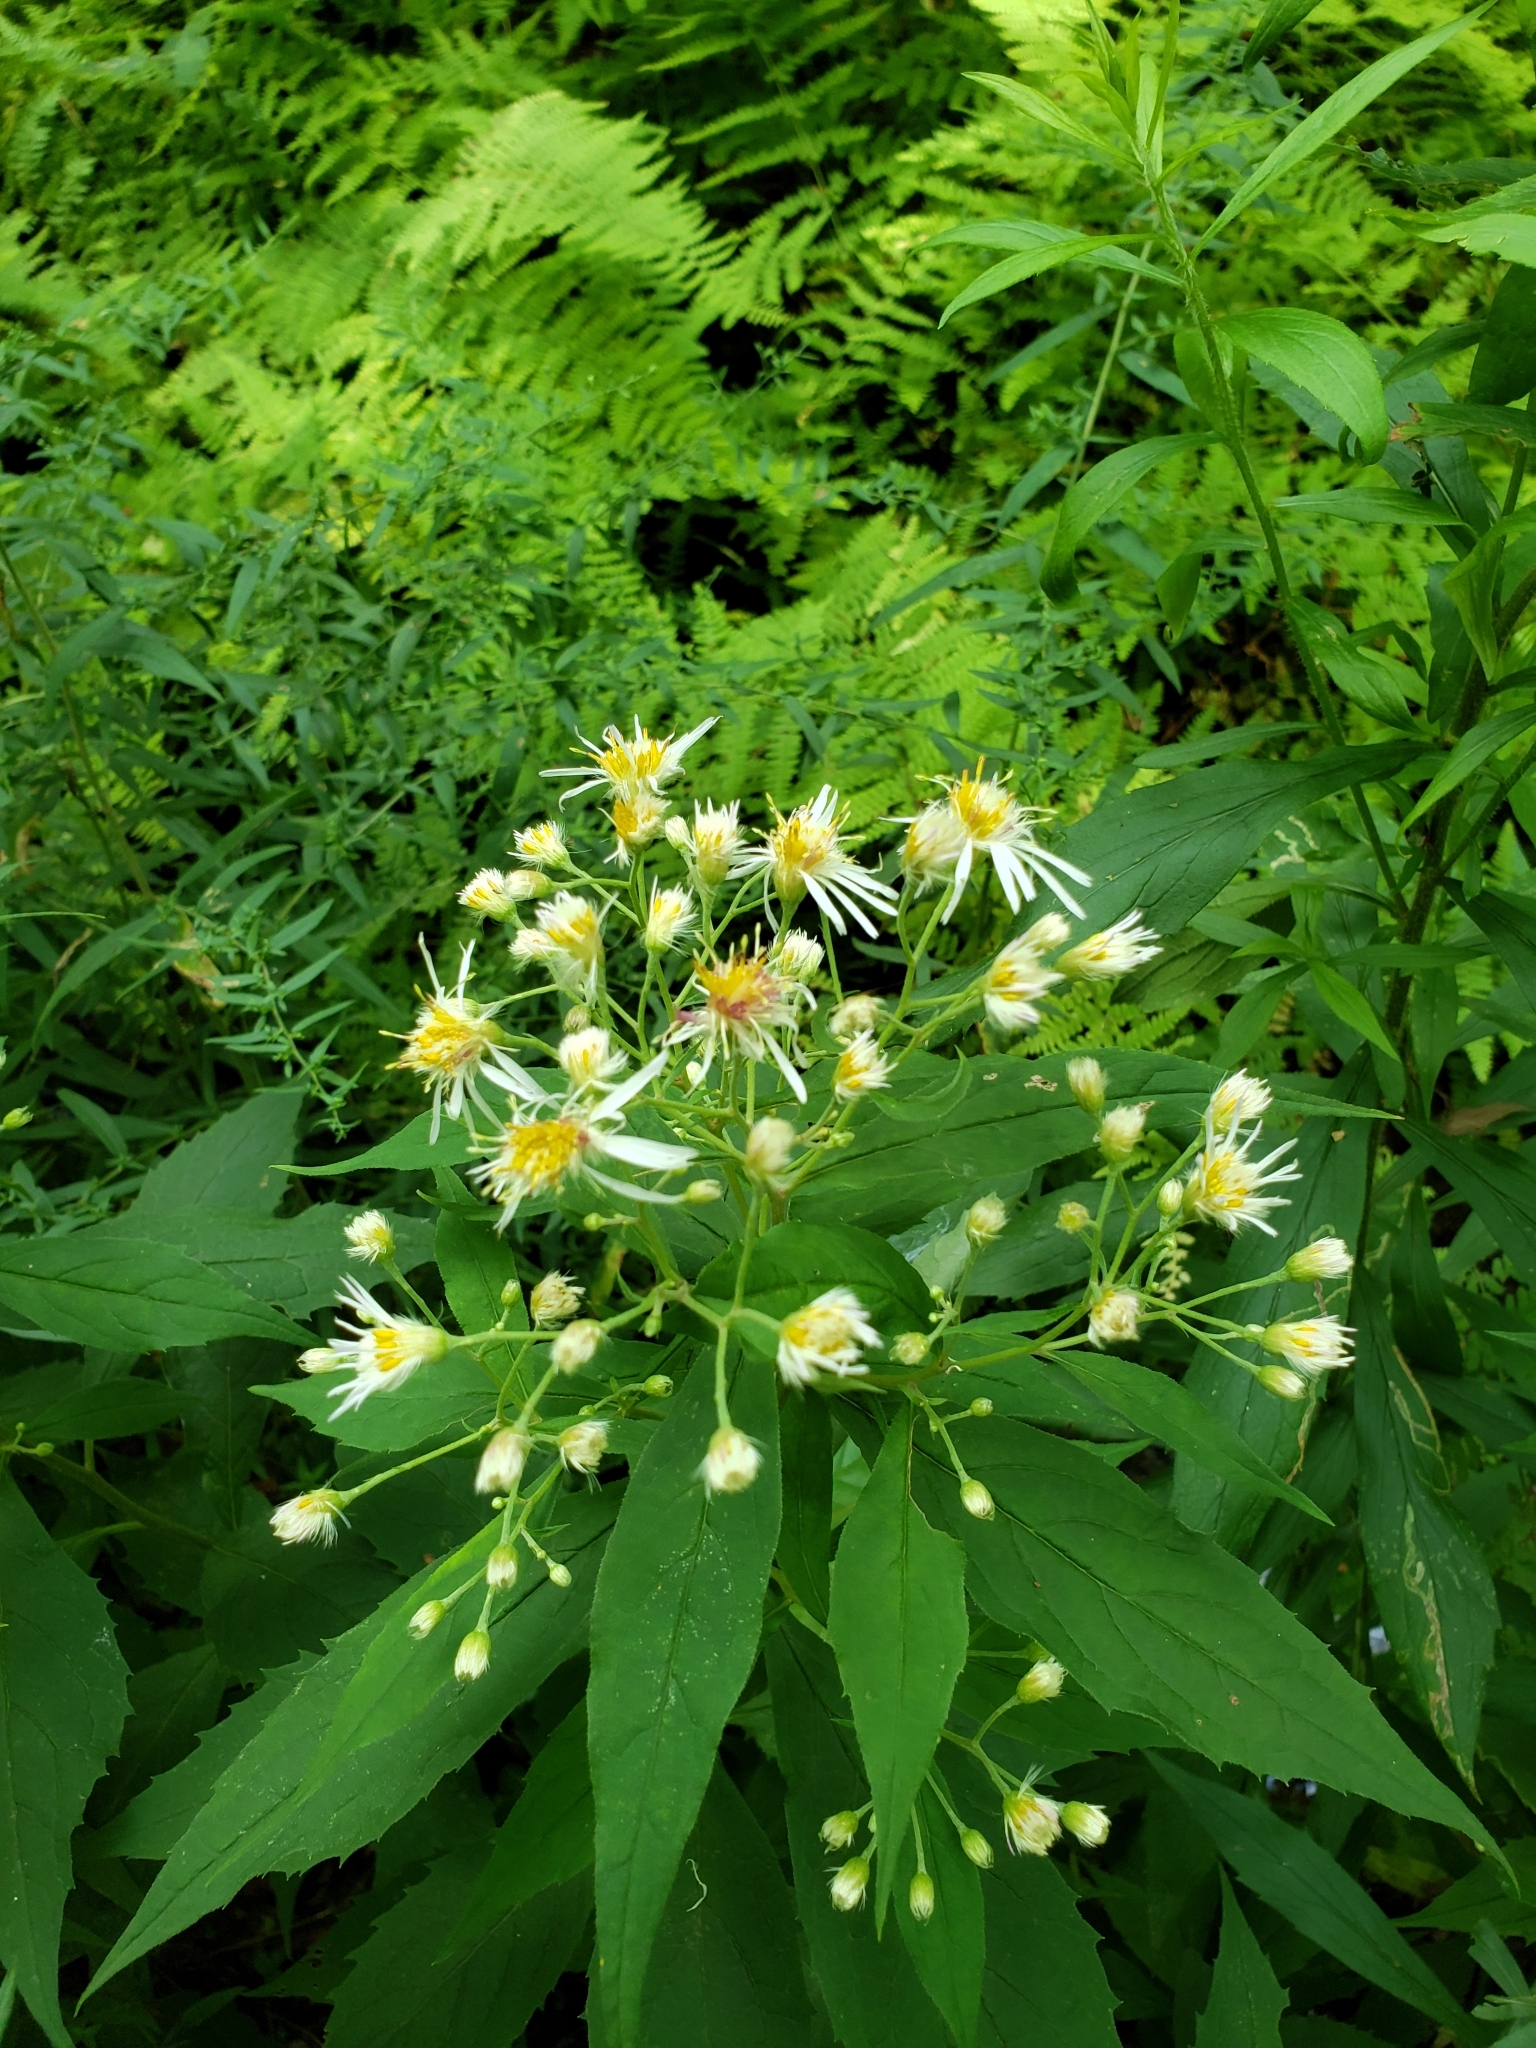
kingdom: Plantae
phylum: Tracheophyta
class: Magnoliopsida
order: Asterales
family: Asteraceae
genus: Oclemena
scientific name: Oclemena acuminata
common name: Mountain aster
